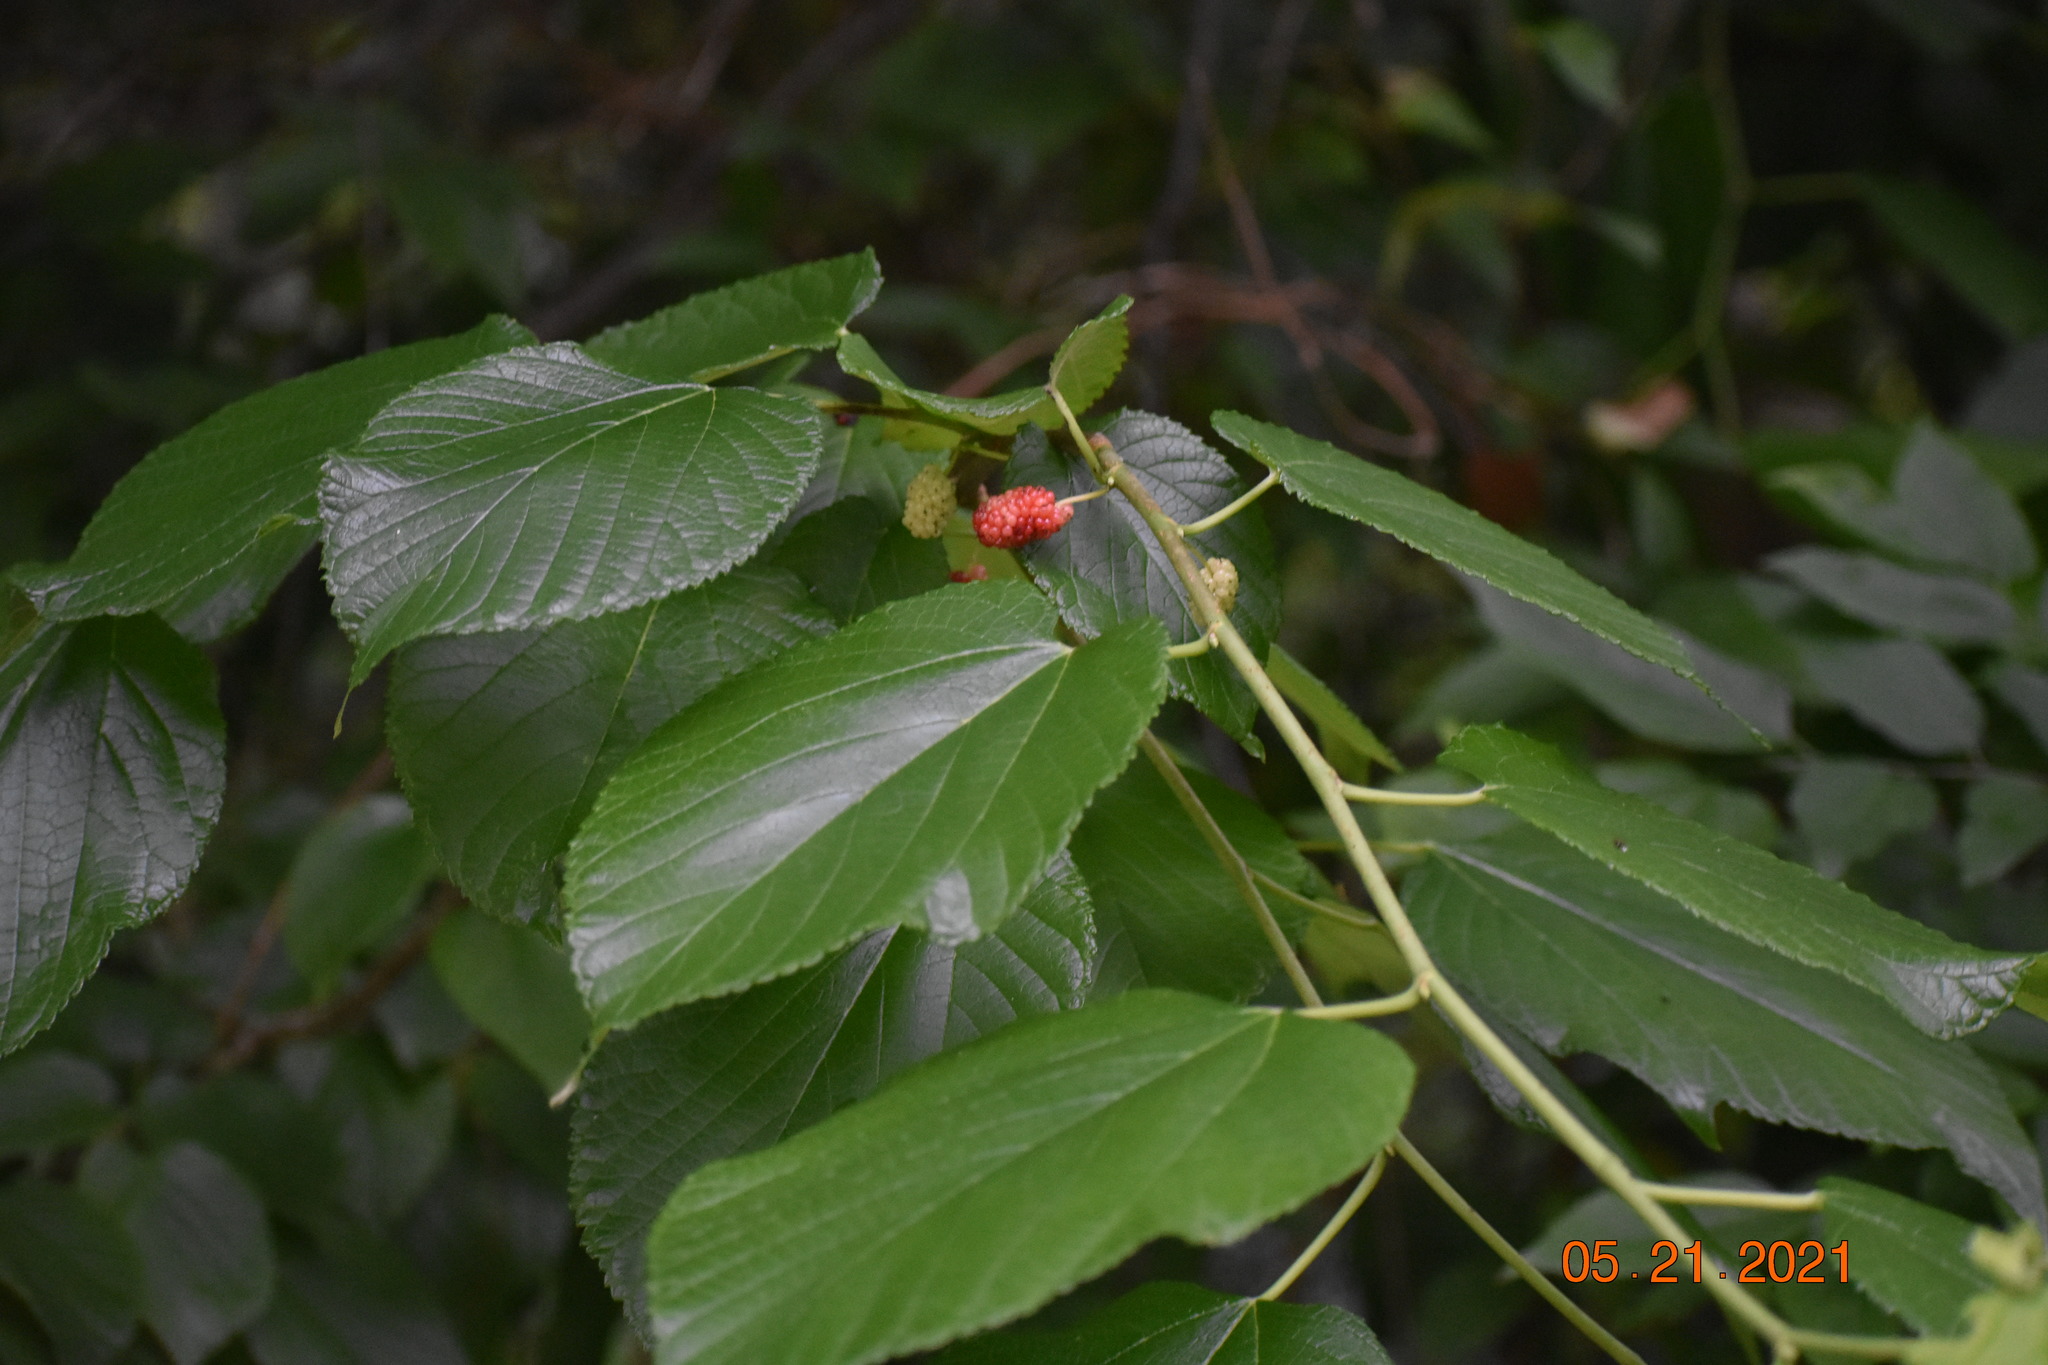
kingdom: Plantae
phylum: Tracheophyta
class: Magnoliopsida
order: Rosales
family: Moraceae
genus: Morus
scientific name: Morus rubra
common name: Red mulberry
